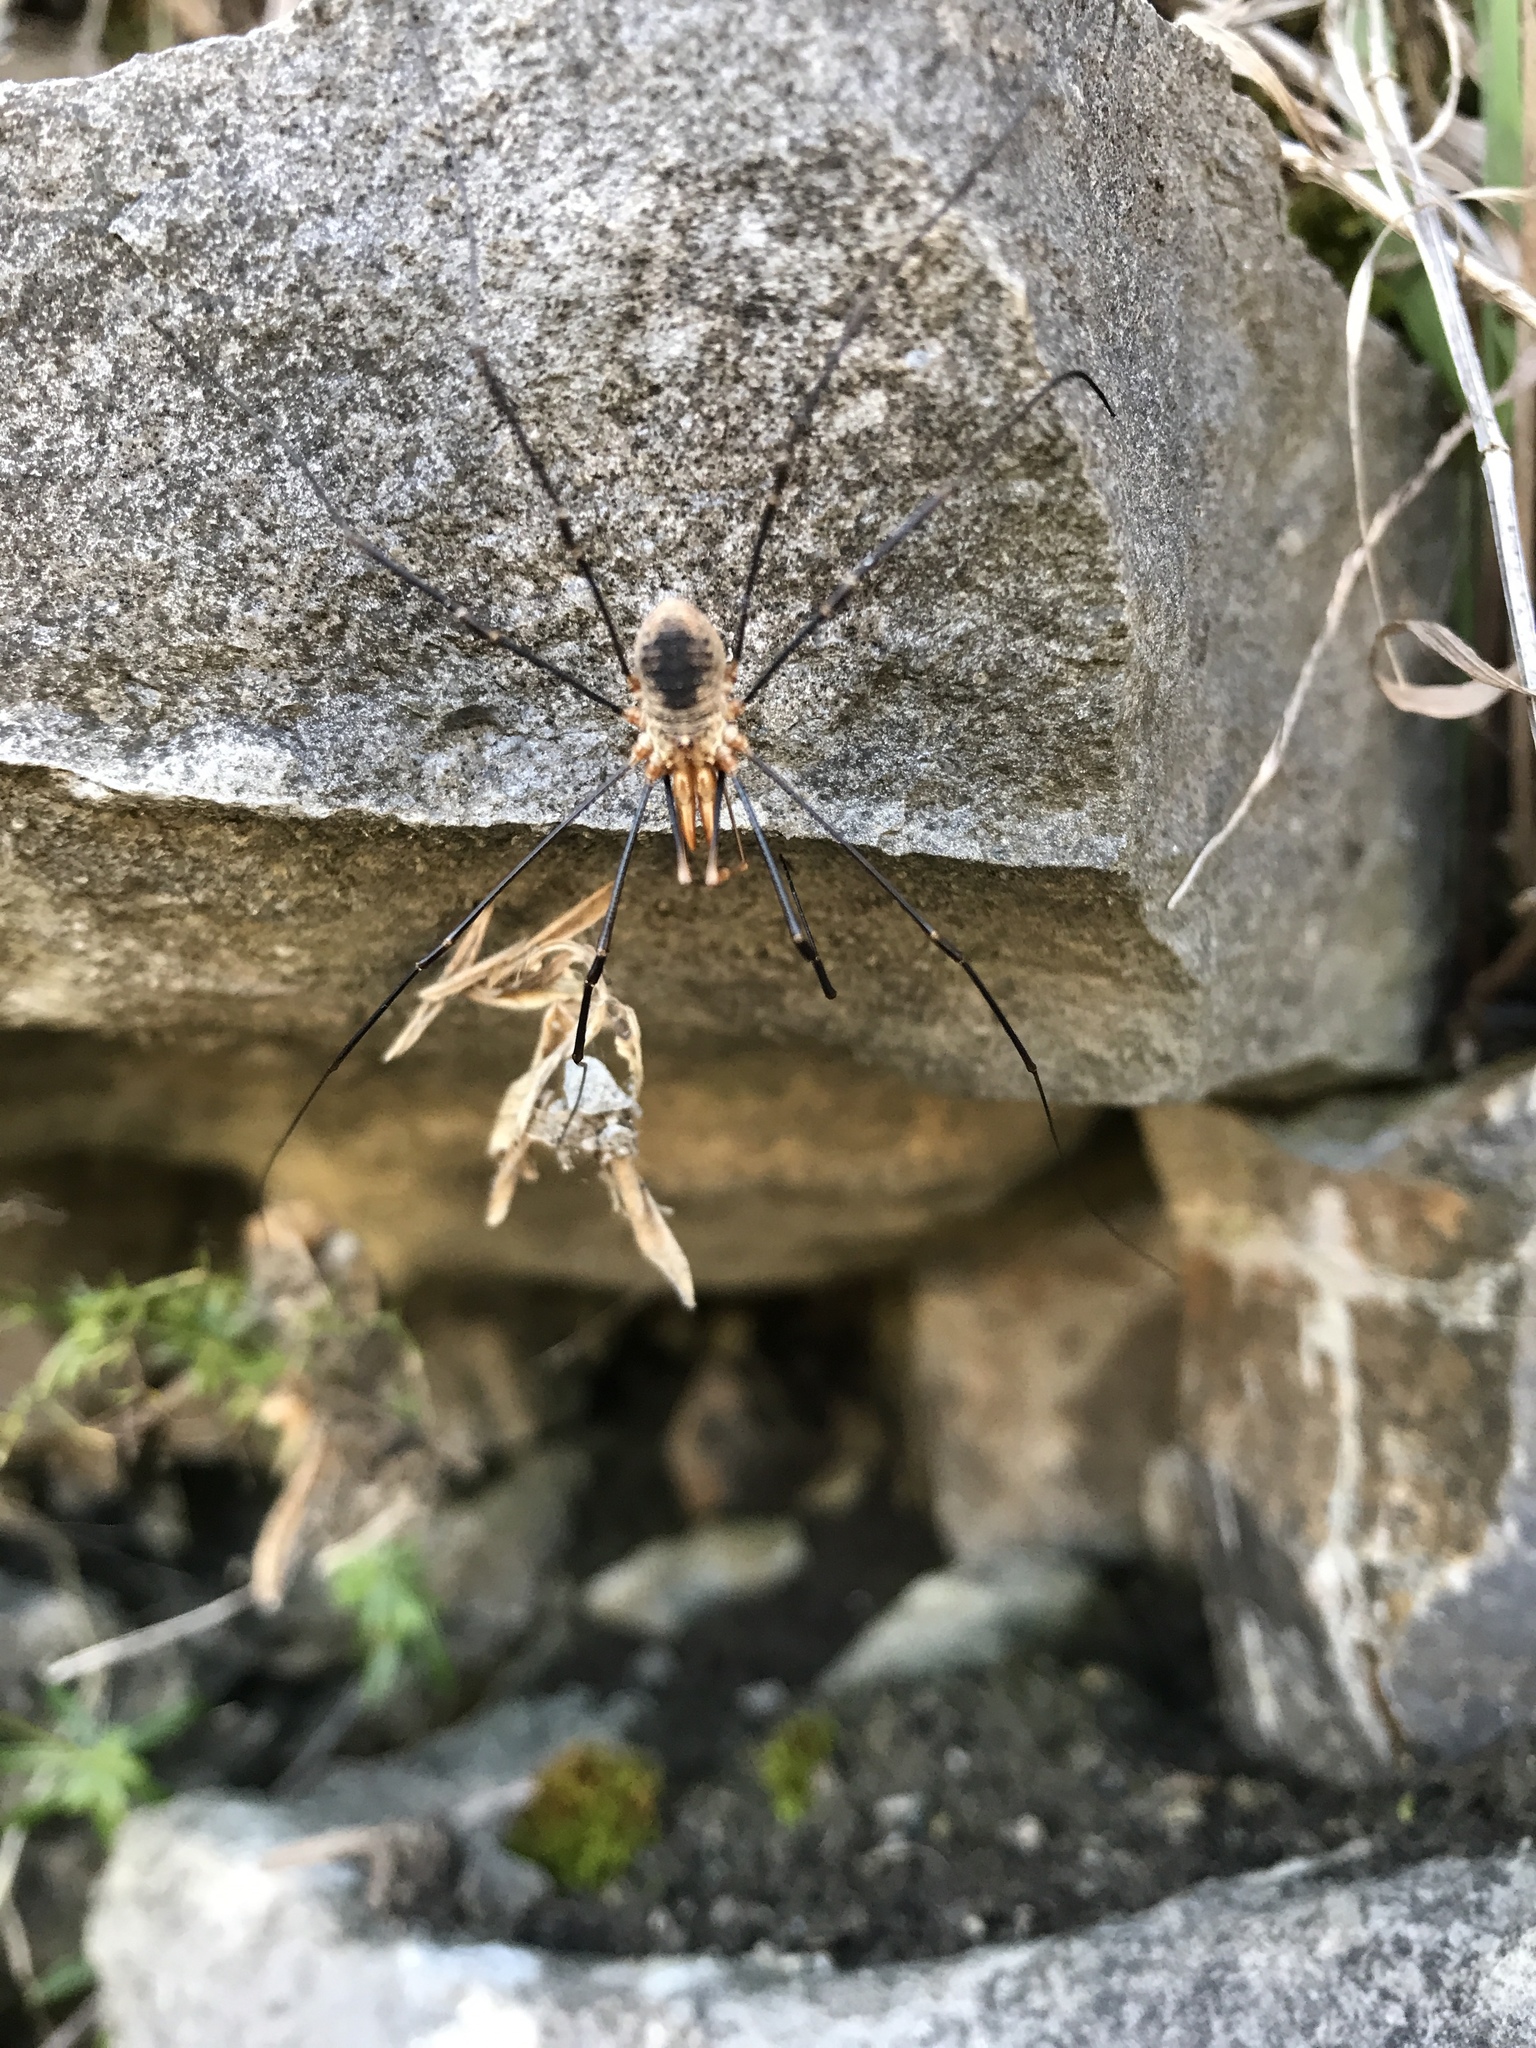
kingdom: Animalia
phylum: Arthropoda
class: Arachnida
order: Opiliones
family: Phalangiidae
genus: Phalangium
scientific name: Phalangium opilio
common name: Daddy longleg
